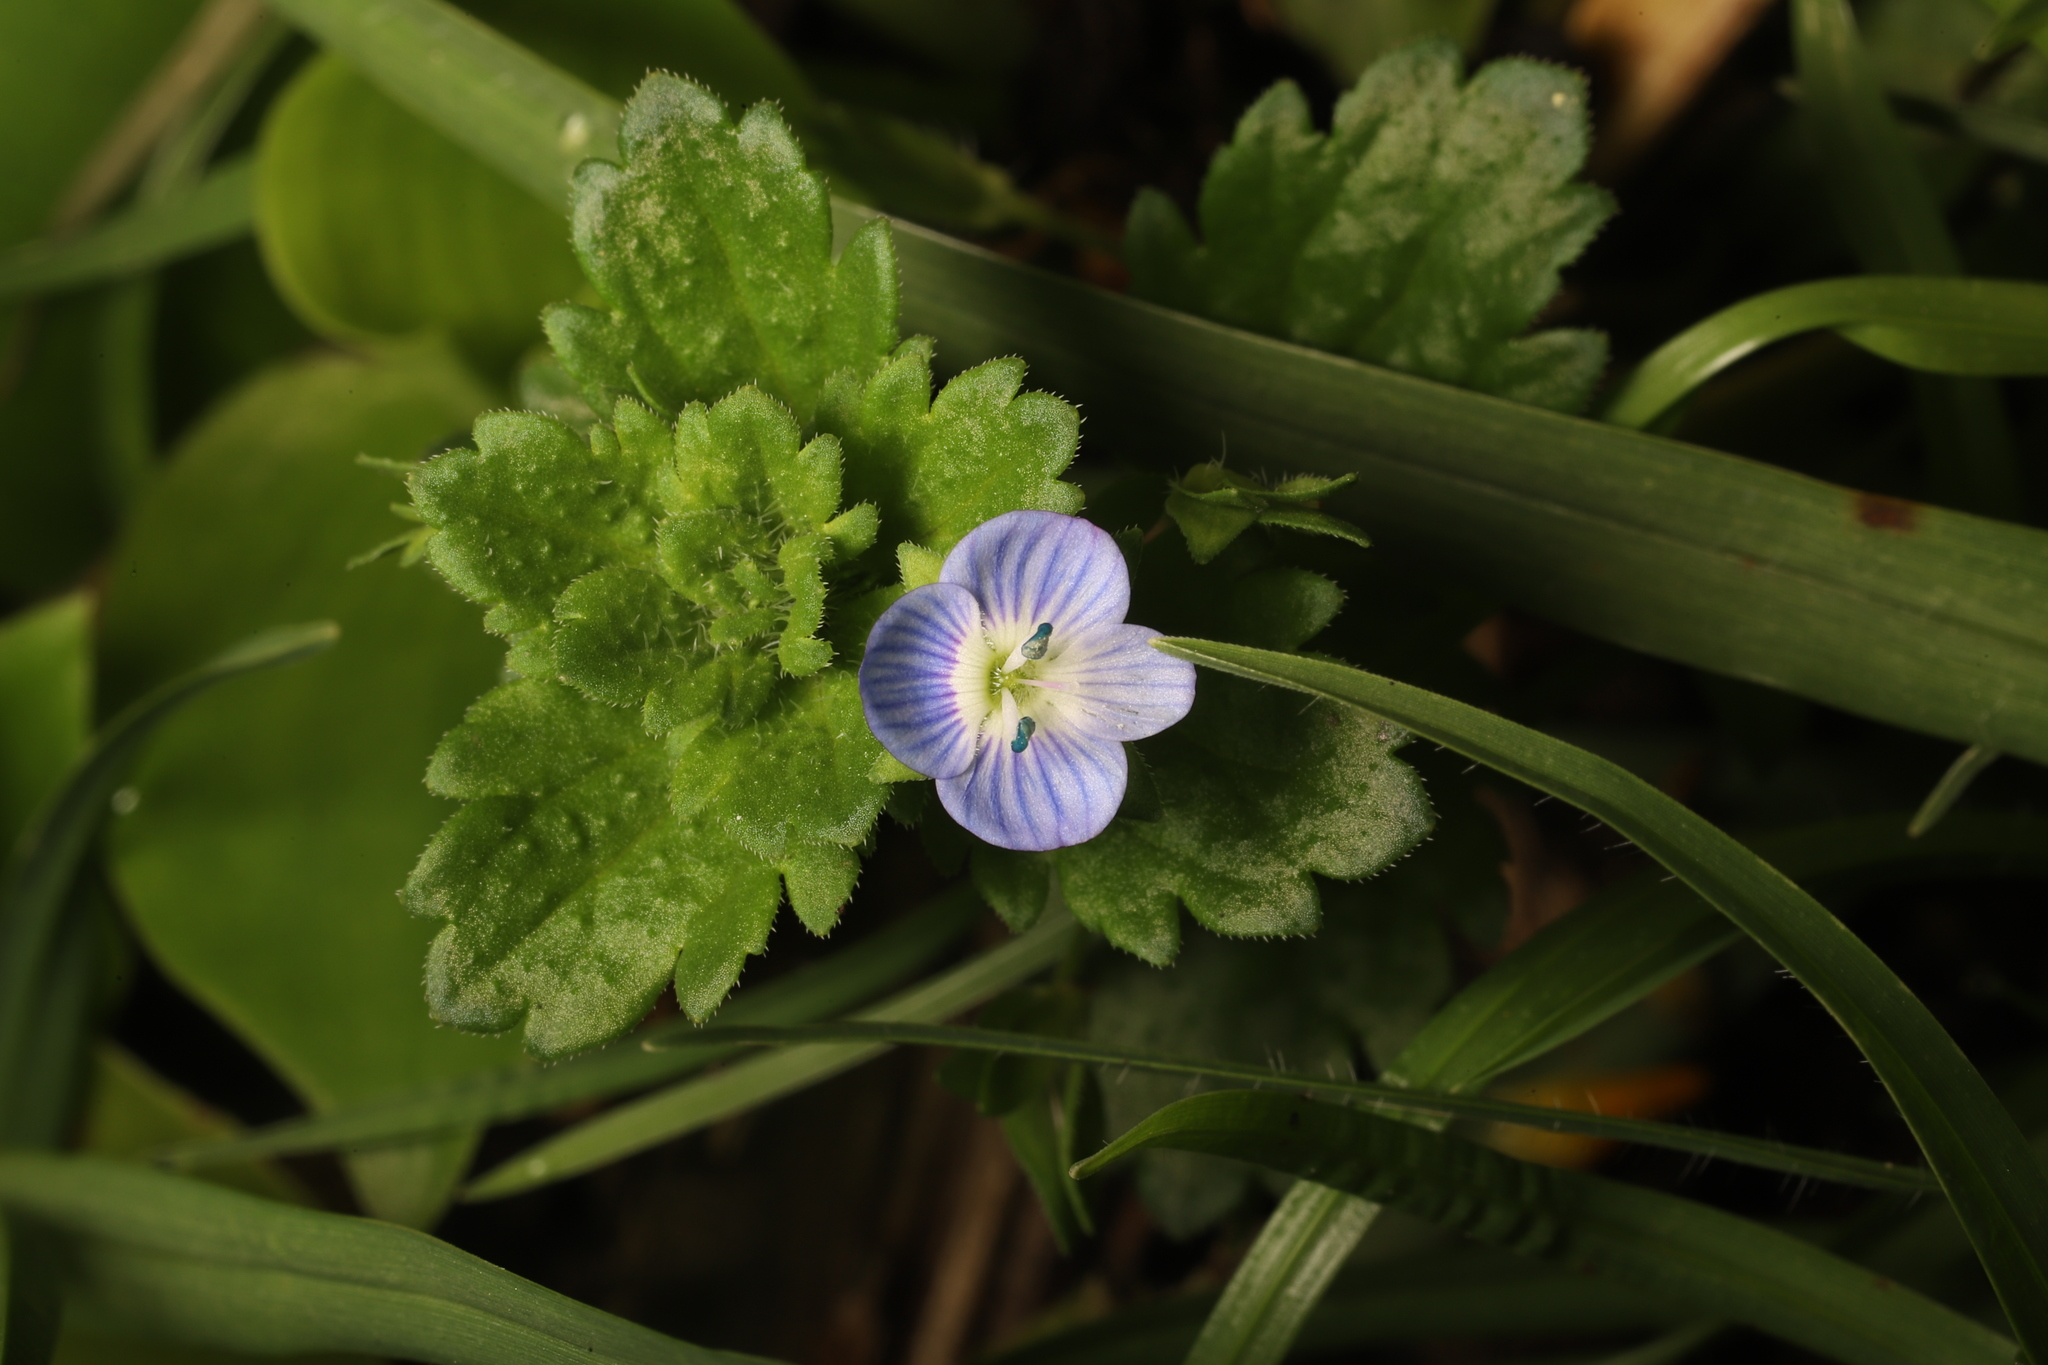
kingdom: Plantae
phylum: Tracheophyta
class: Magnoliopsida
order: Lamiales
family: Plantaginaceae
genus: Veronica
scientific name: Veronica persica
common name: Common field-speedwell
